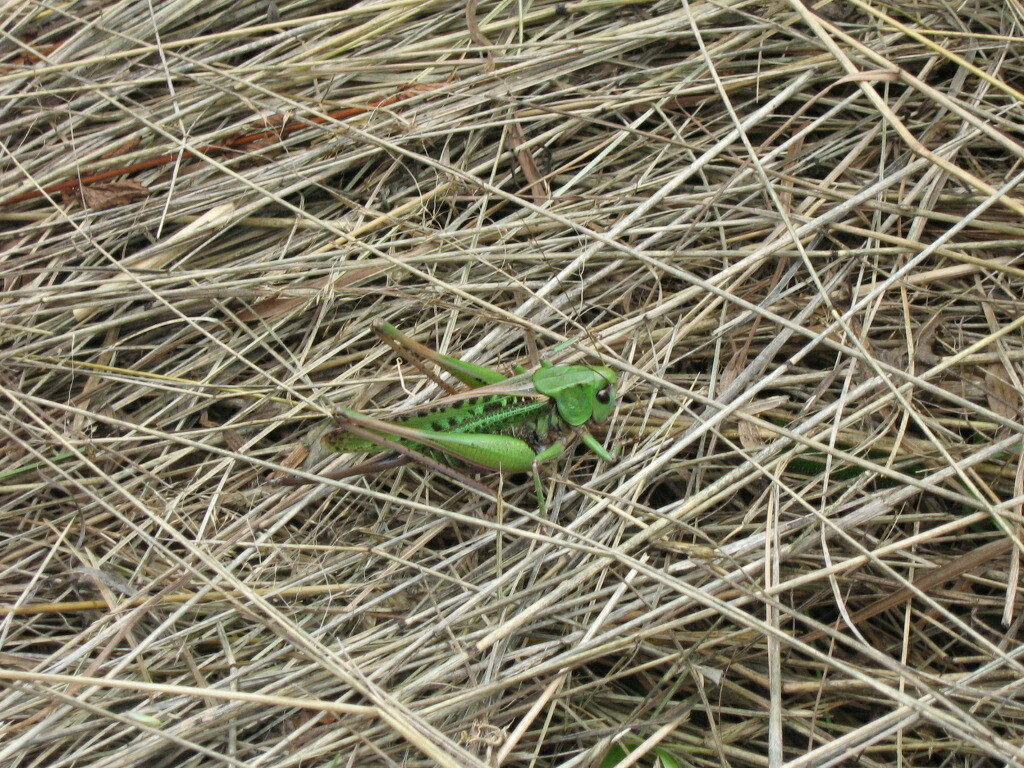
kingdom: Animalia
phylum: Arthropoda
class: Insecta
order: Orthoptera
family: Tettigoniidae
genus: Decticus
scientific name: Decticus verrucivorus
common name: Wart-biter
